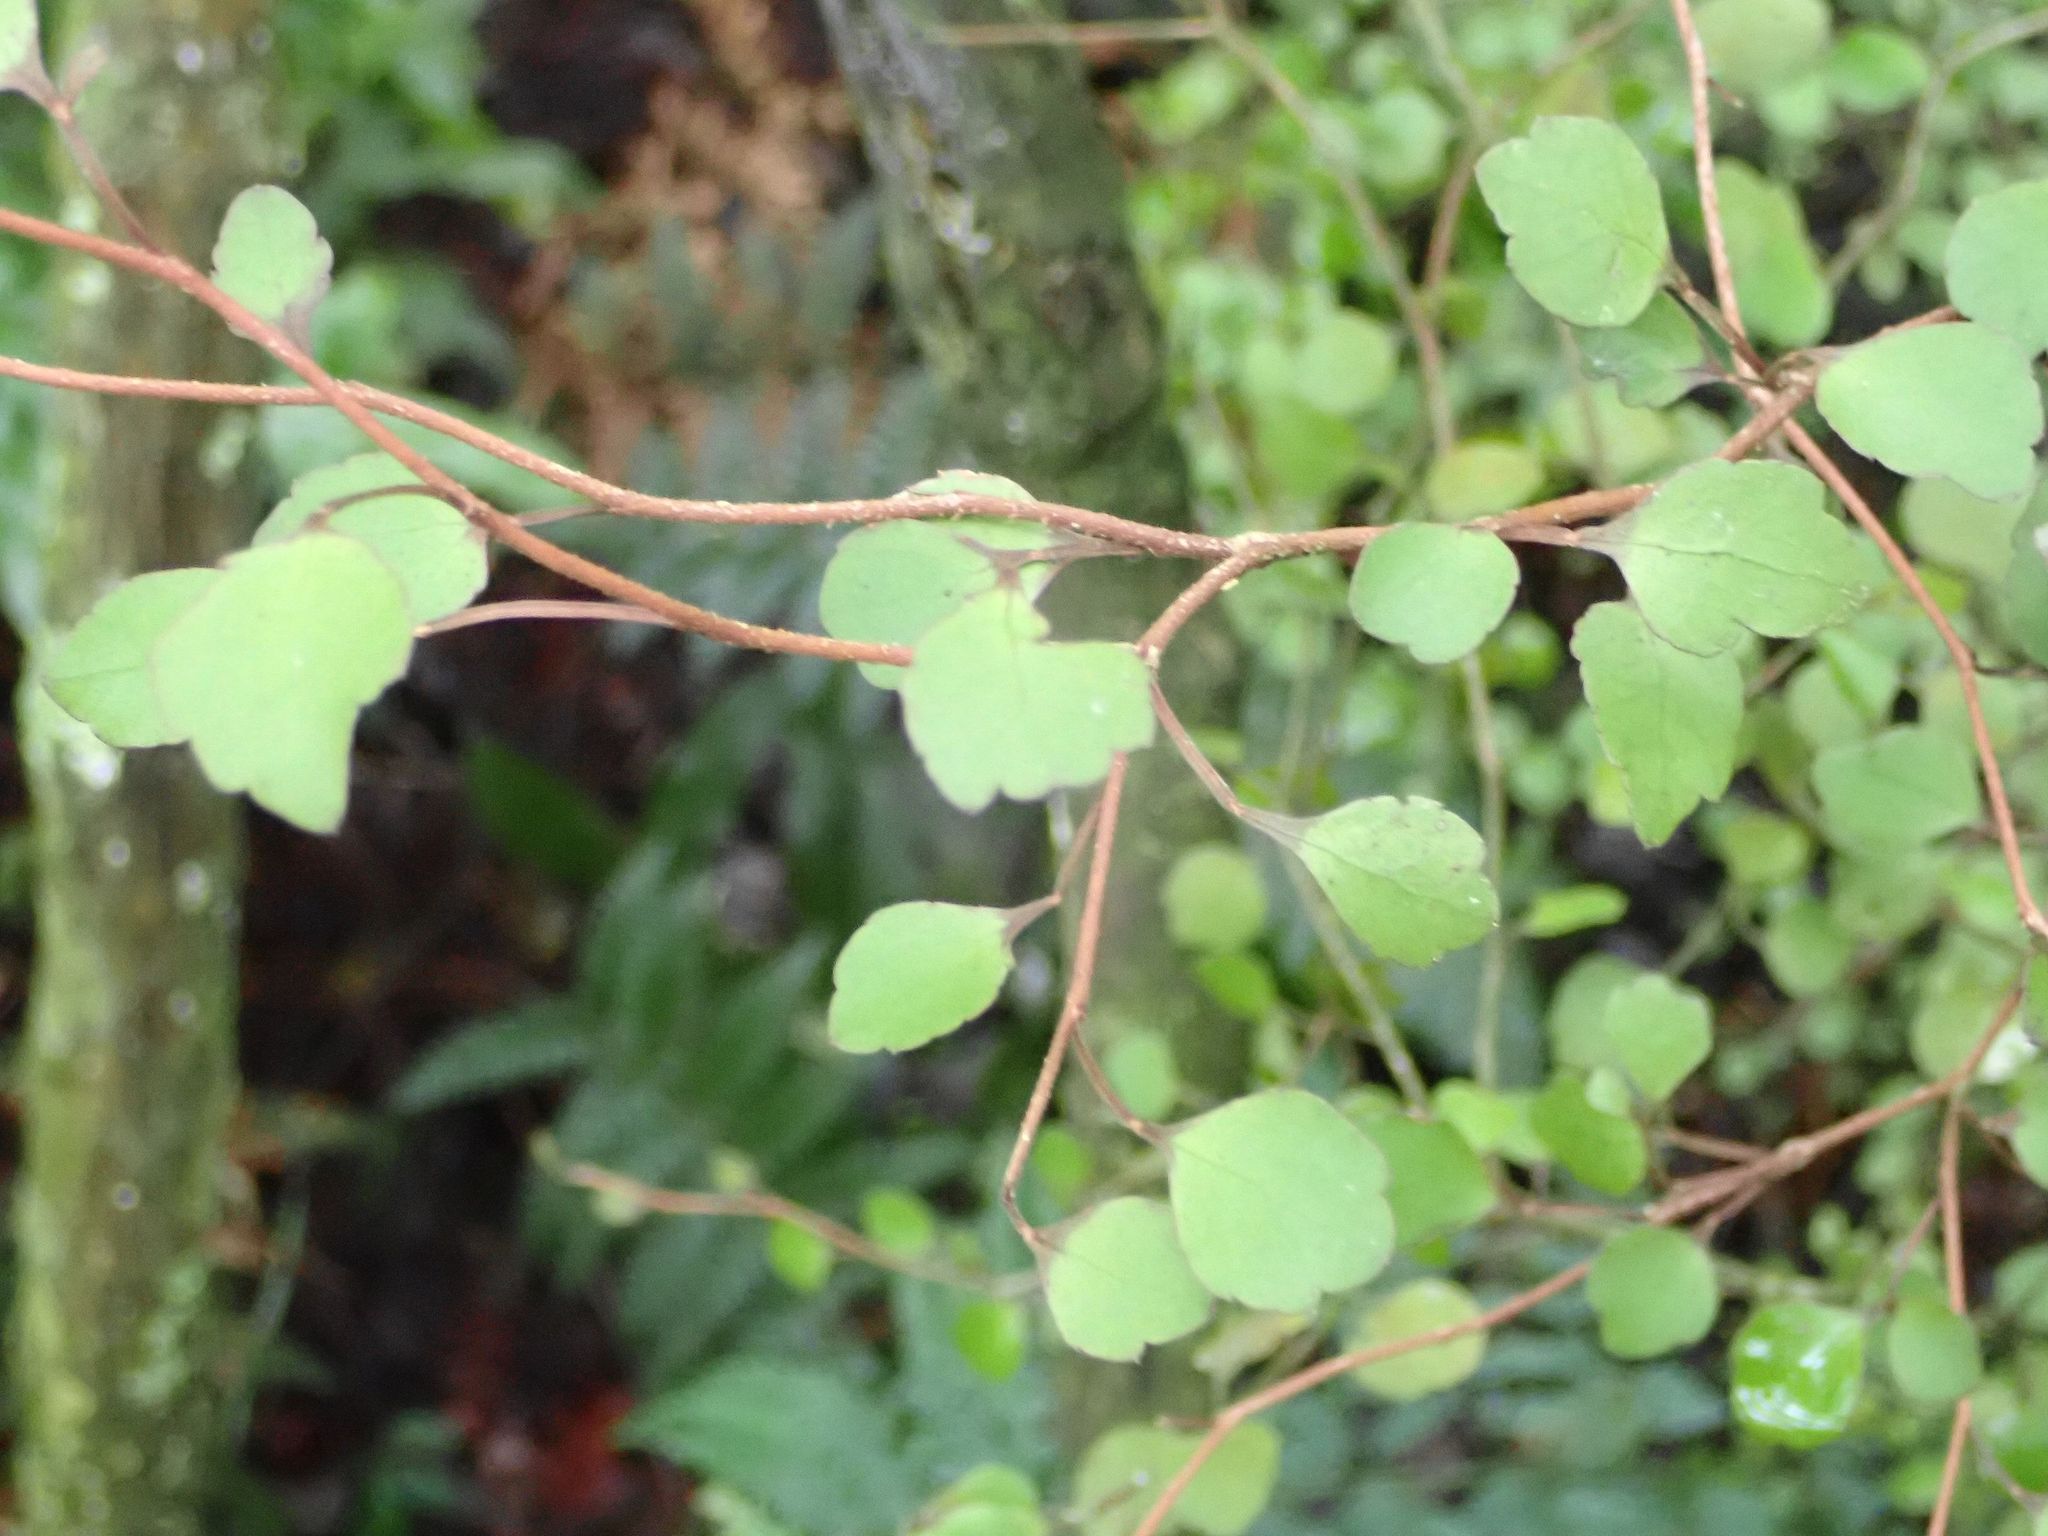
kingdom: Plantae
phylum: Tracheophyta
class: Magnoliopsida
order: Apiales
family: Araliaceae
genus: Raukaua
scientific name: Raukaua anomalus
